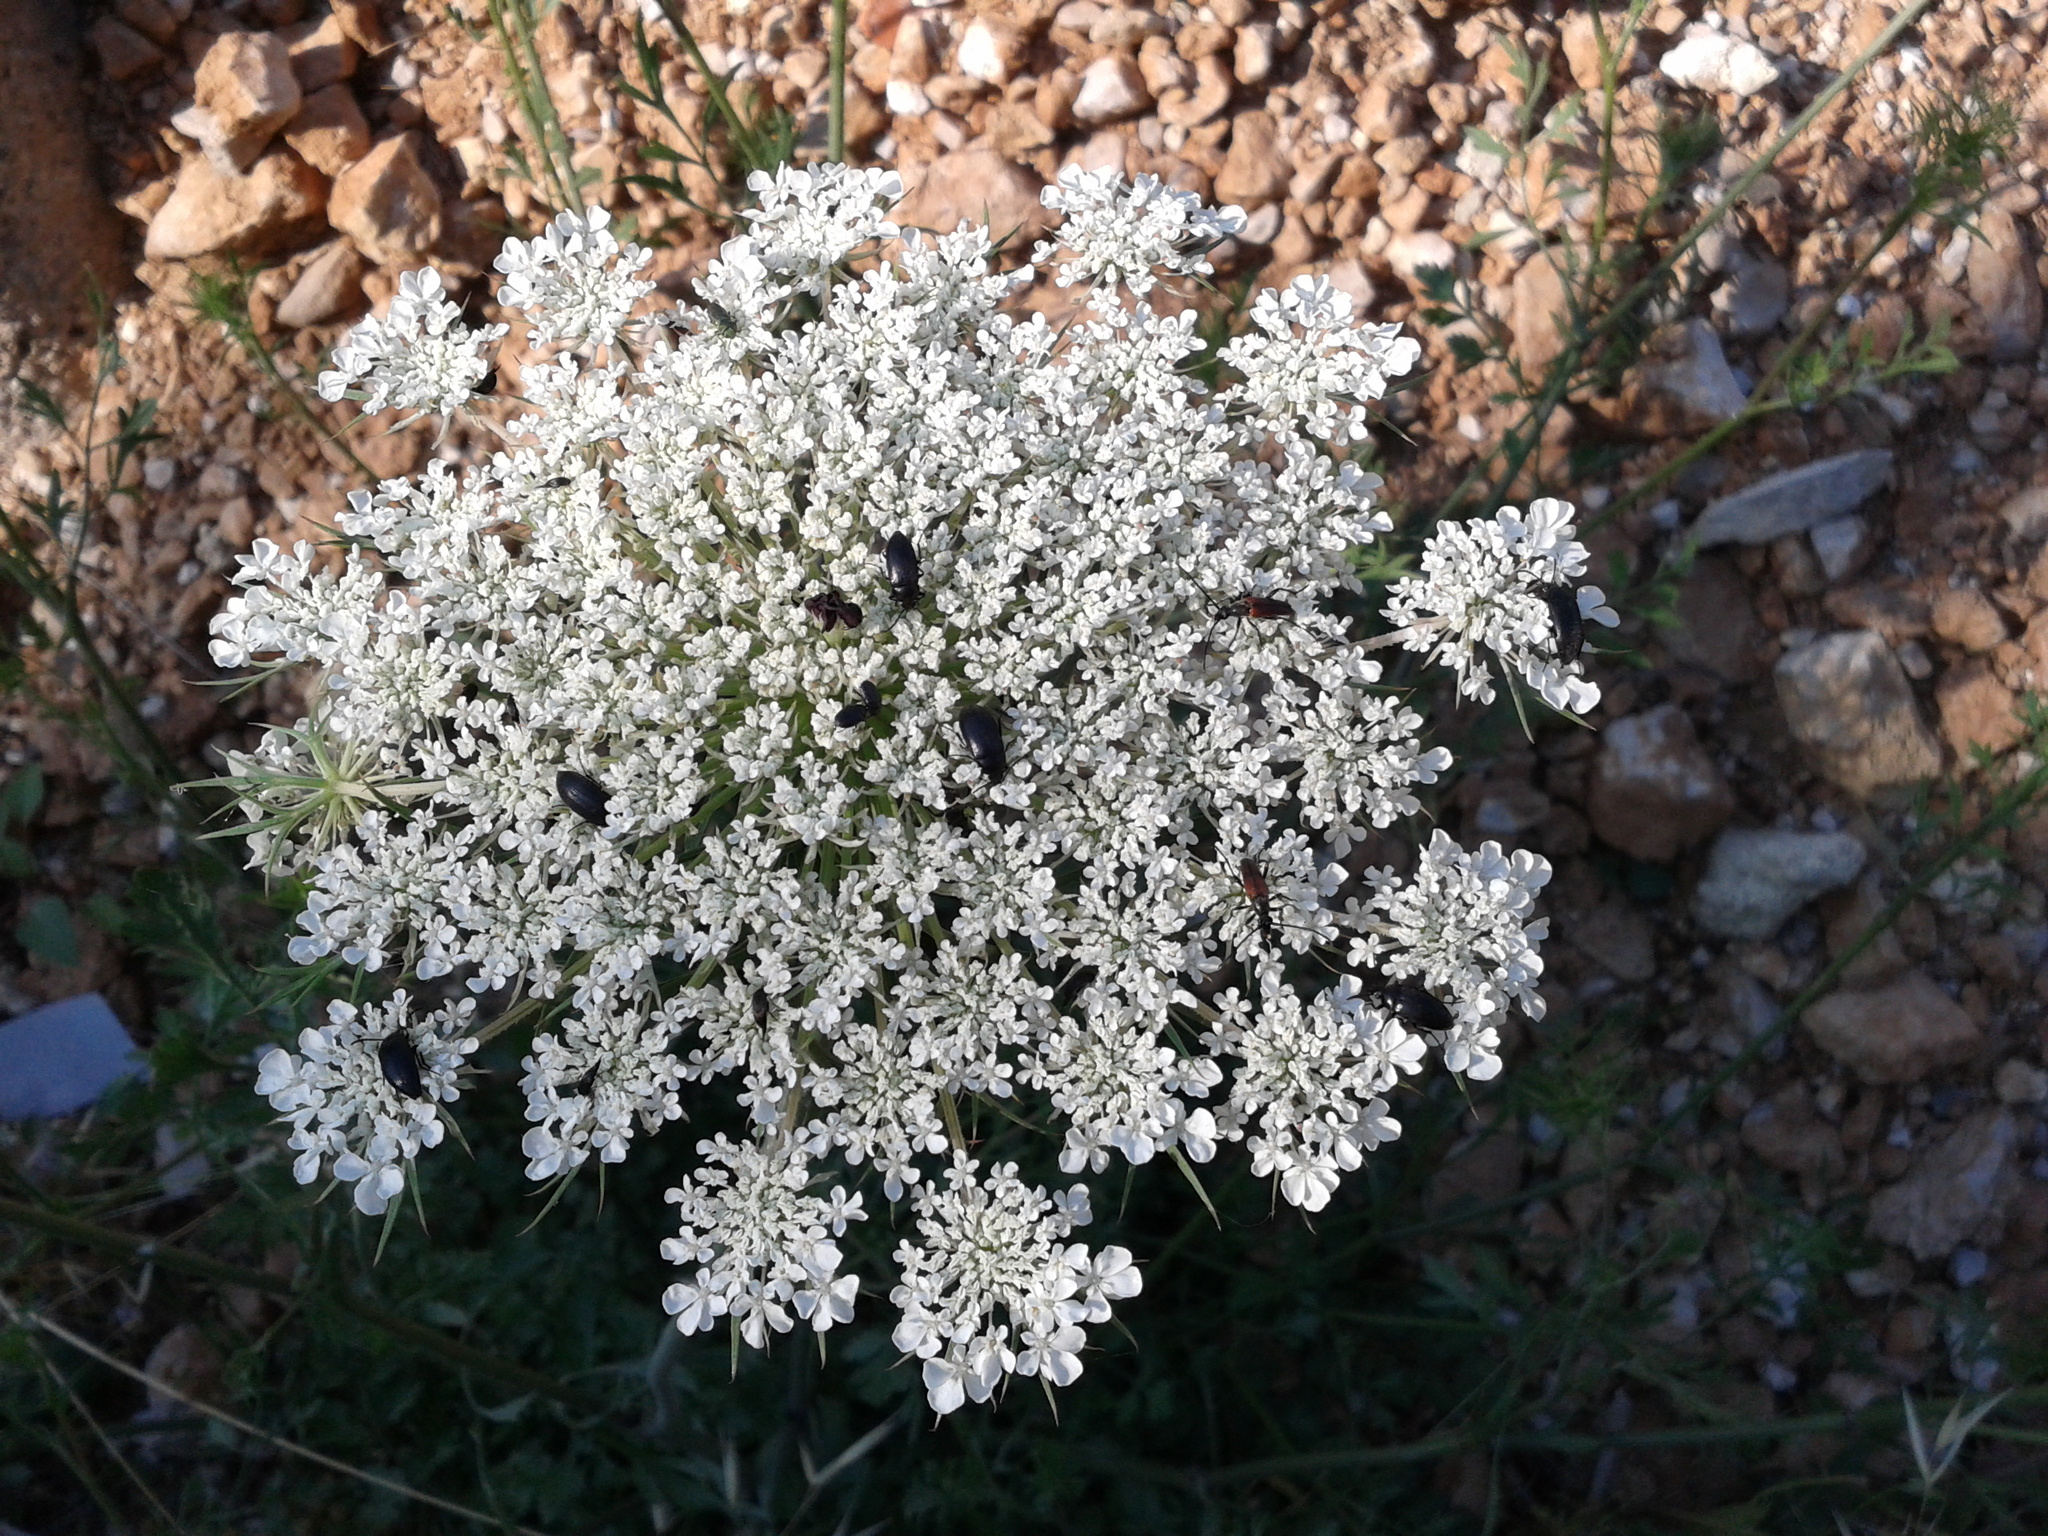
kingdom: Plantae
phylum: Tracheophyta
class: Magnoliopsida
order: Apiales
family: Apiaceae
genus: Daucus
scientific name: Daucus carota
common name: Wild carrot
